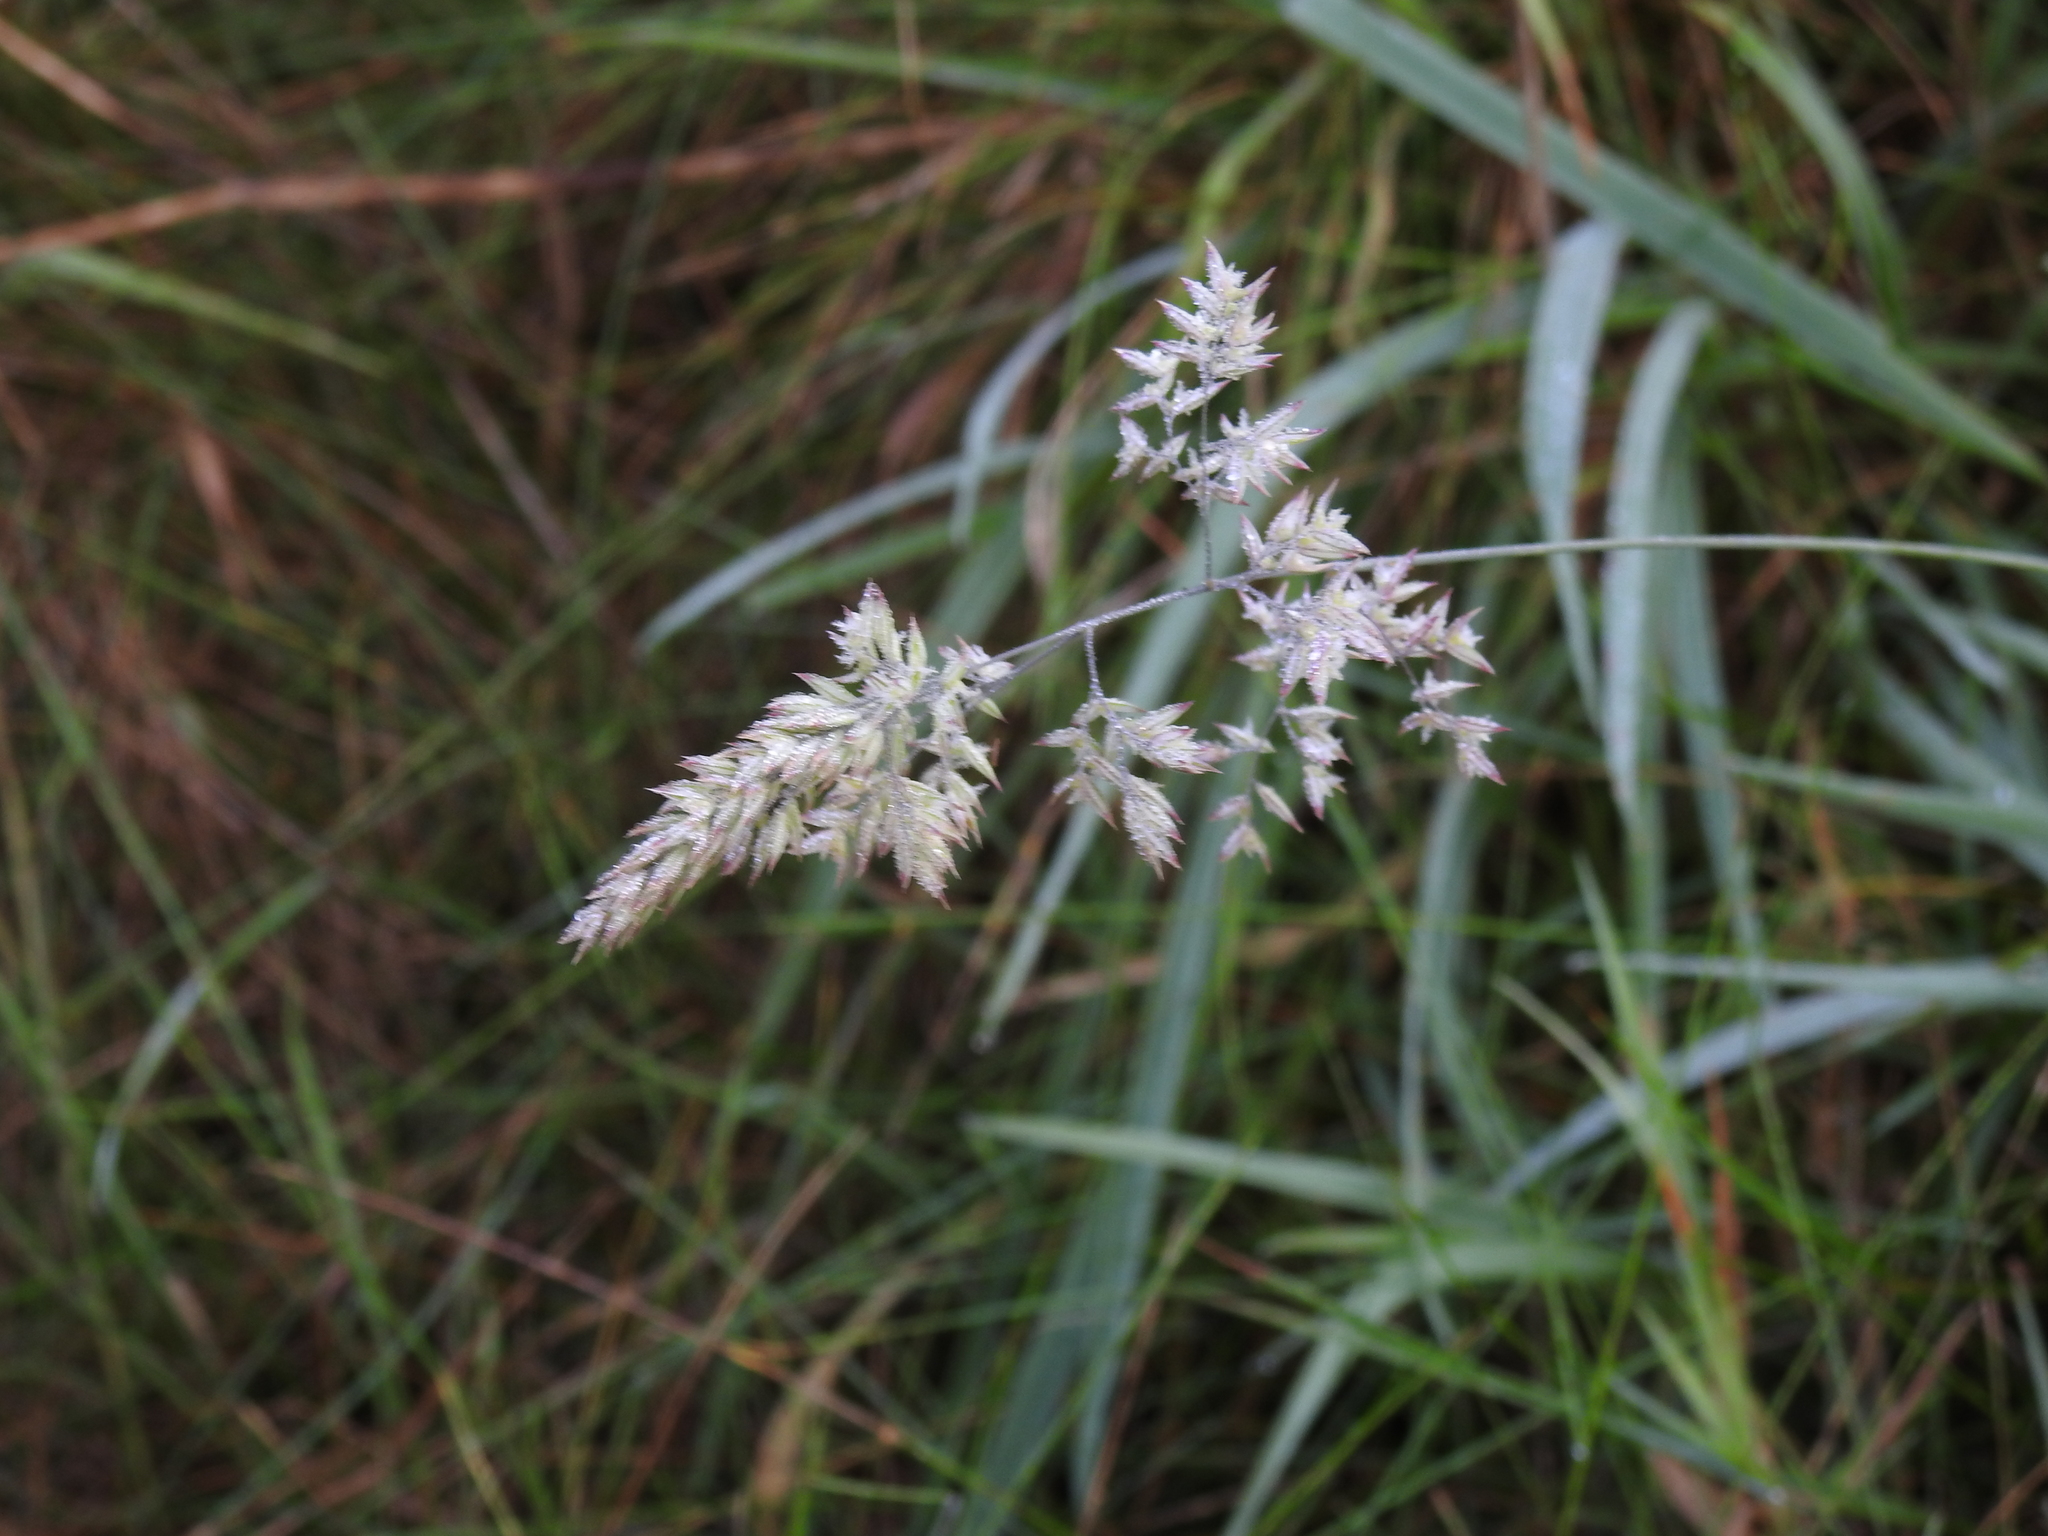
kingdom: Plantae
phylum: Tracheophyta
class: Liliopsida
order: Poales
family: Poaceae
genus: Holcus
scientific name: Holcus lanatus
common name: Yorkshire-fog
